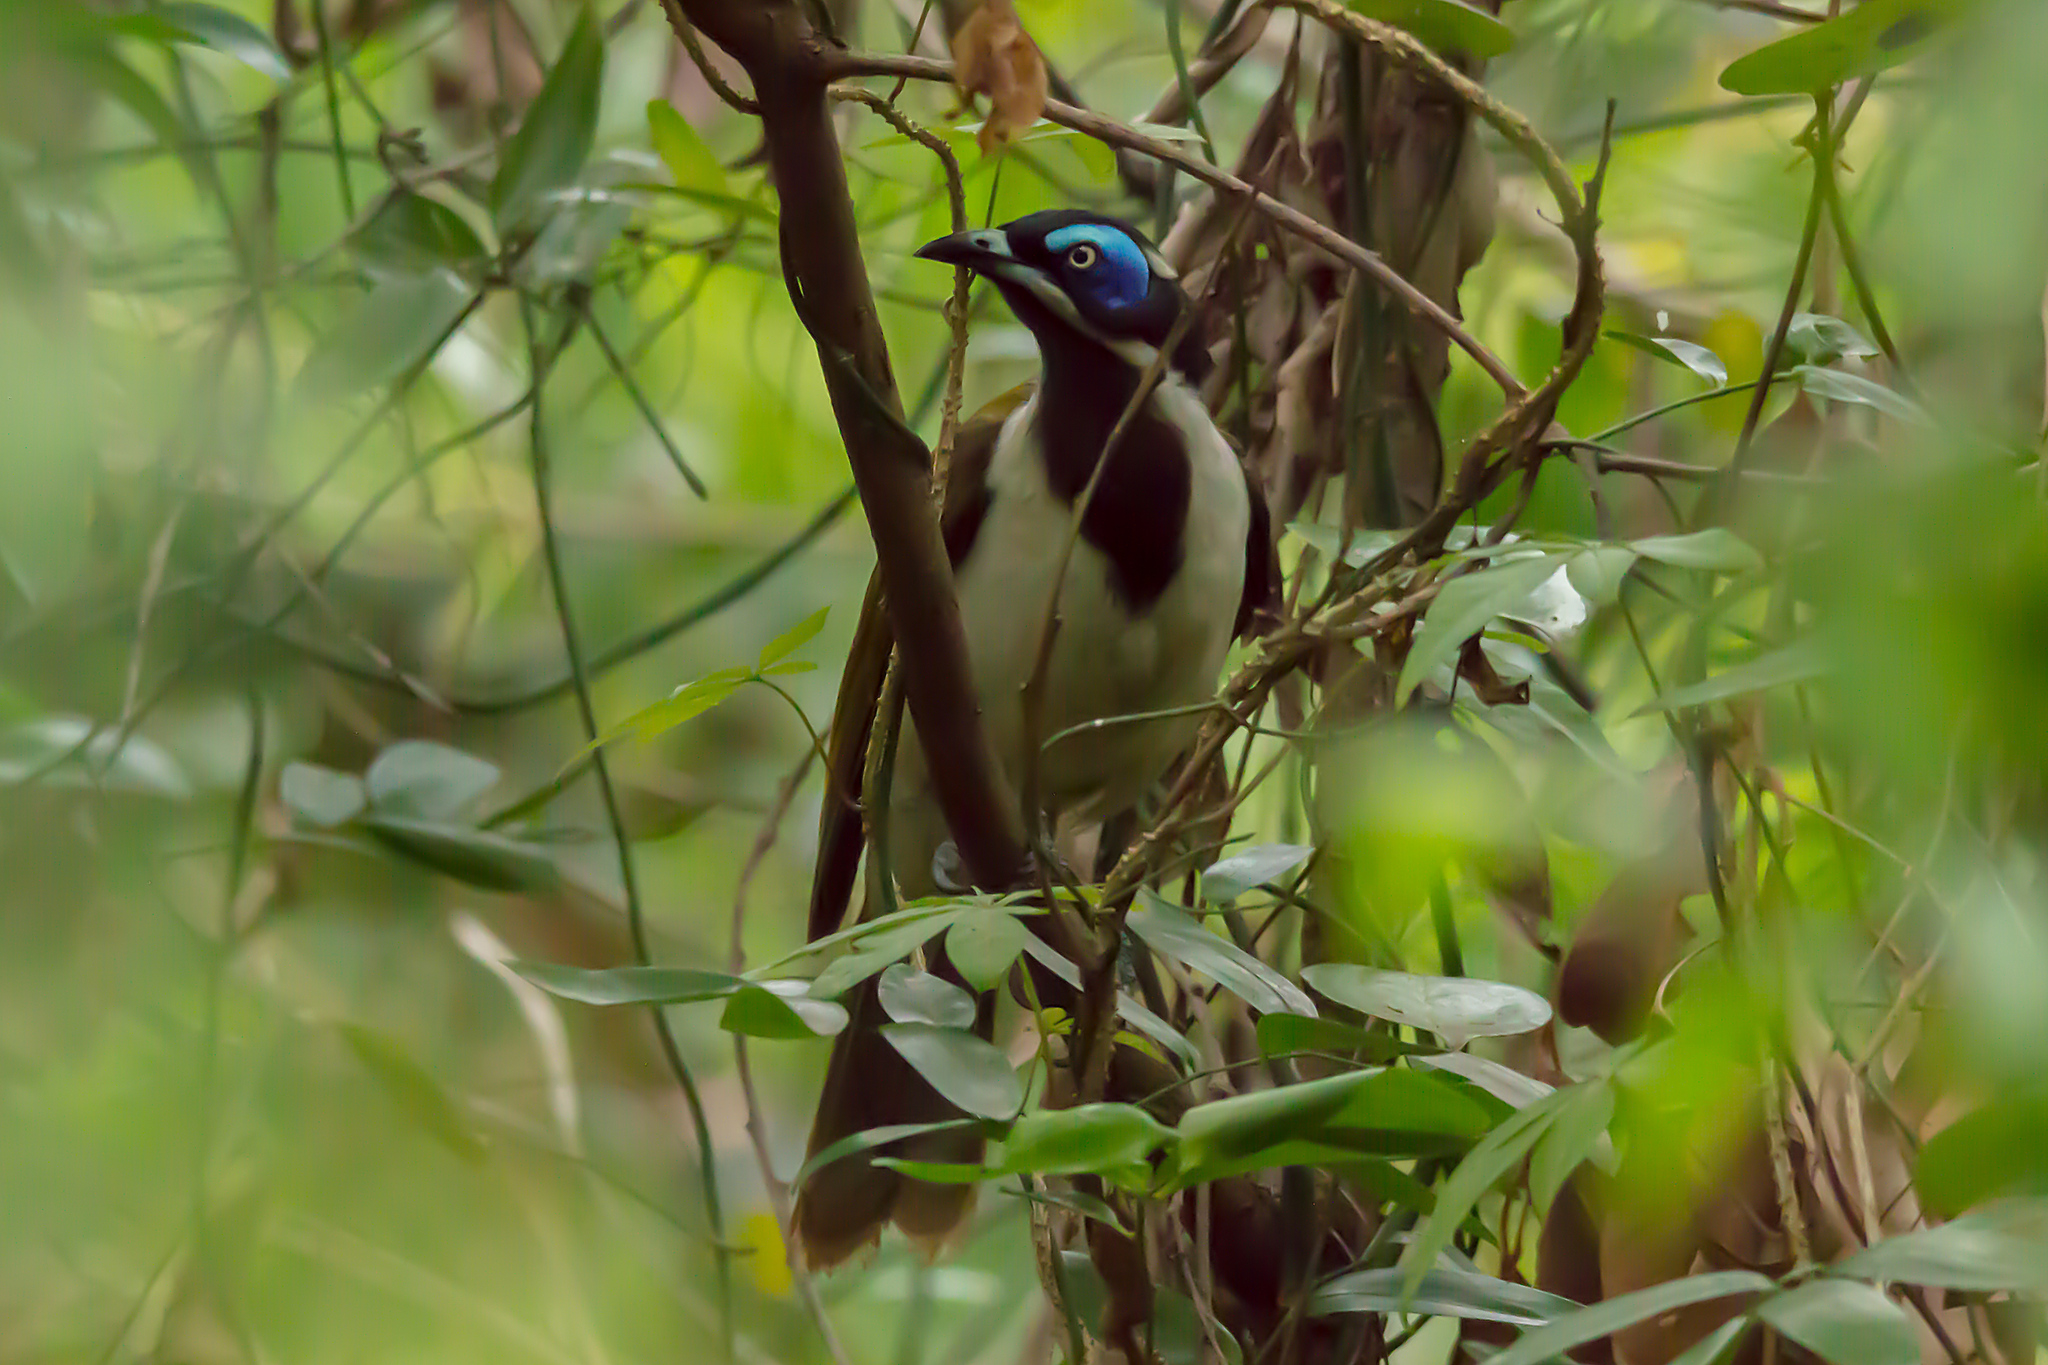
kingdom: Animalia
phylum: Chordata
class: Aves
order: Passeriformes
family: Meliphagidae
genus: Entomyzon
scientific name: Entomyzon cyanotis
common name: Blue-faced honeyeater
